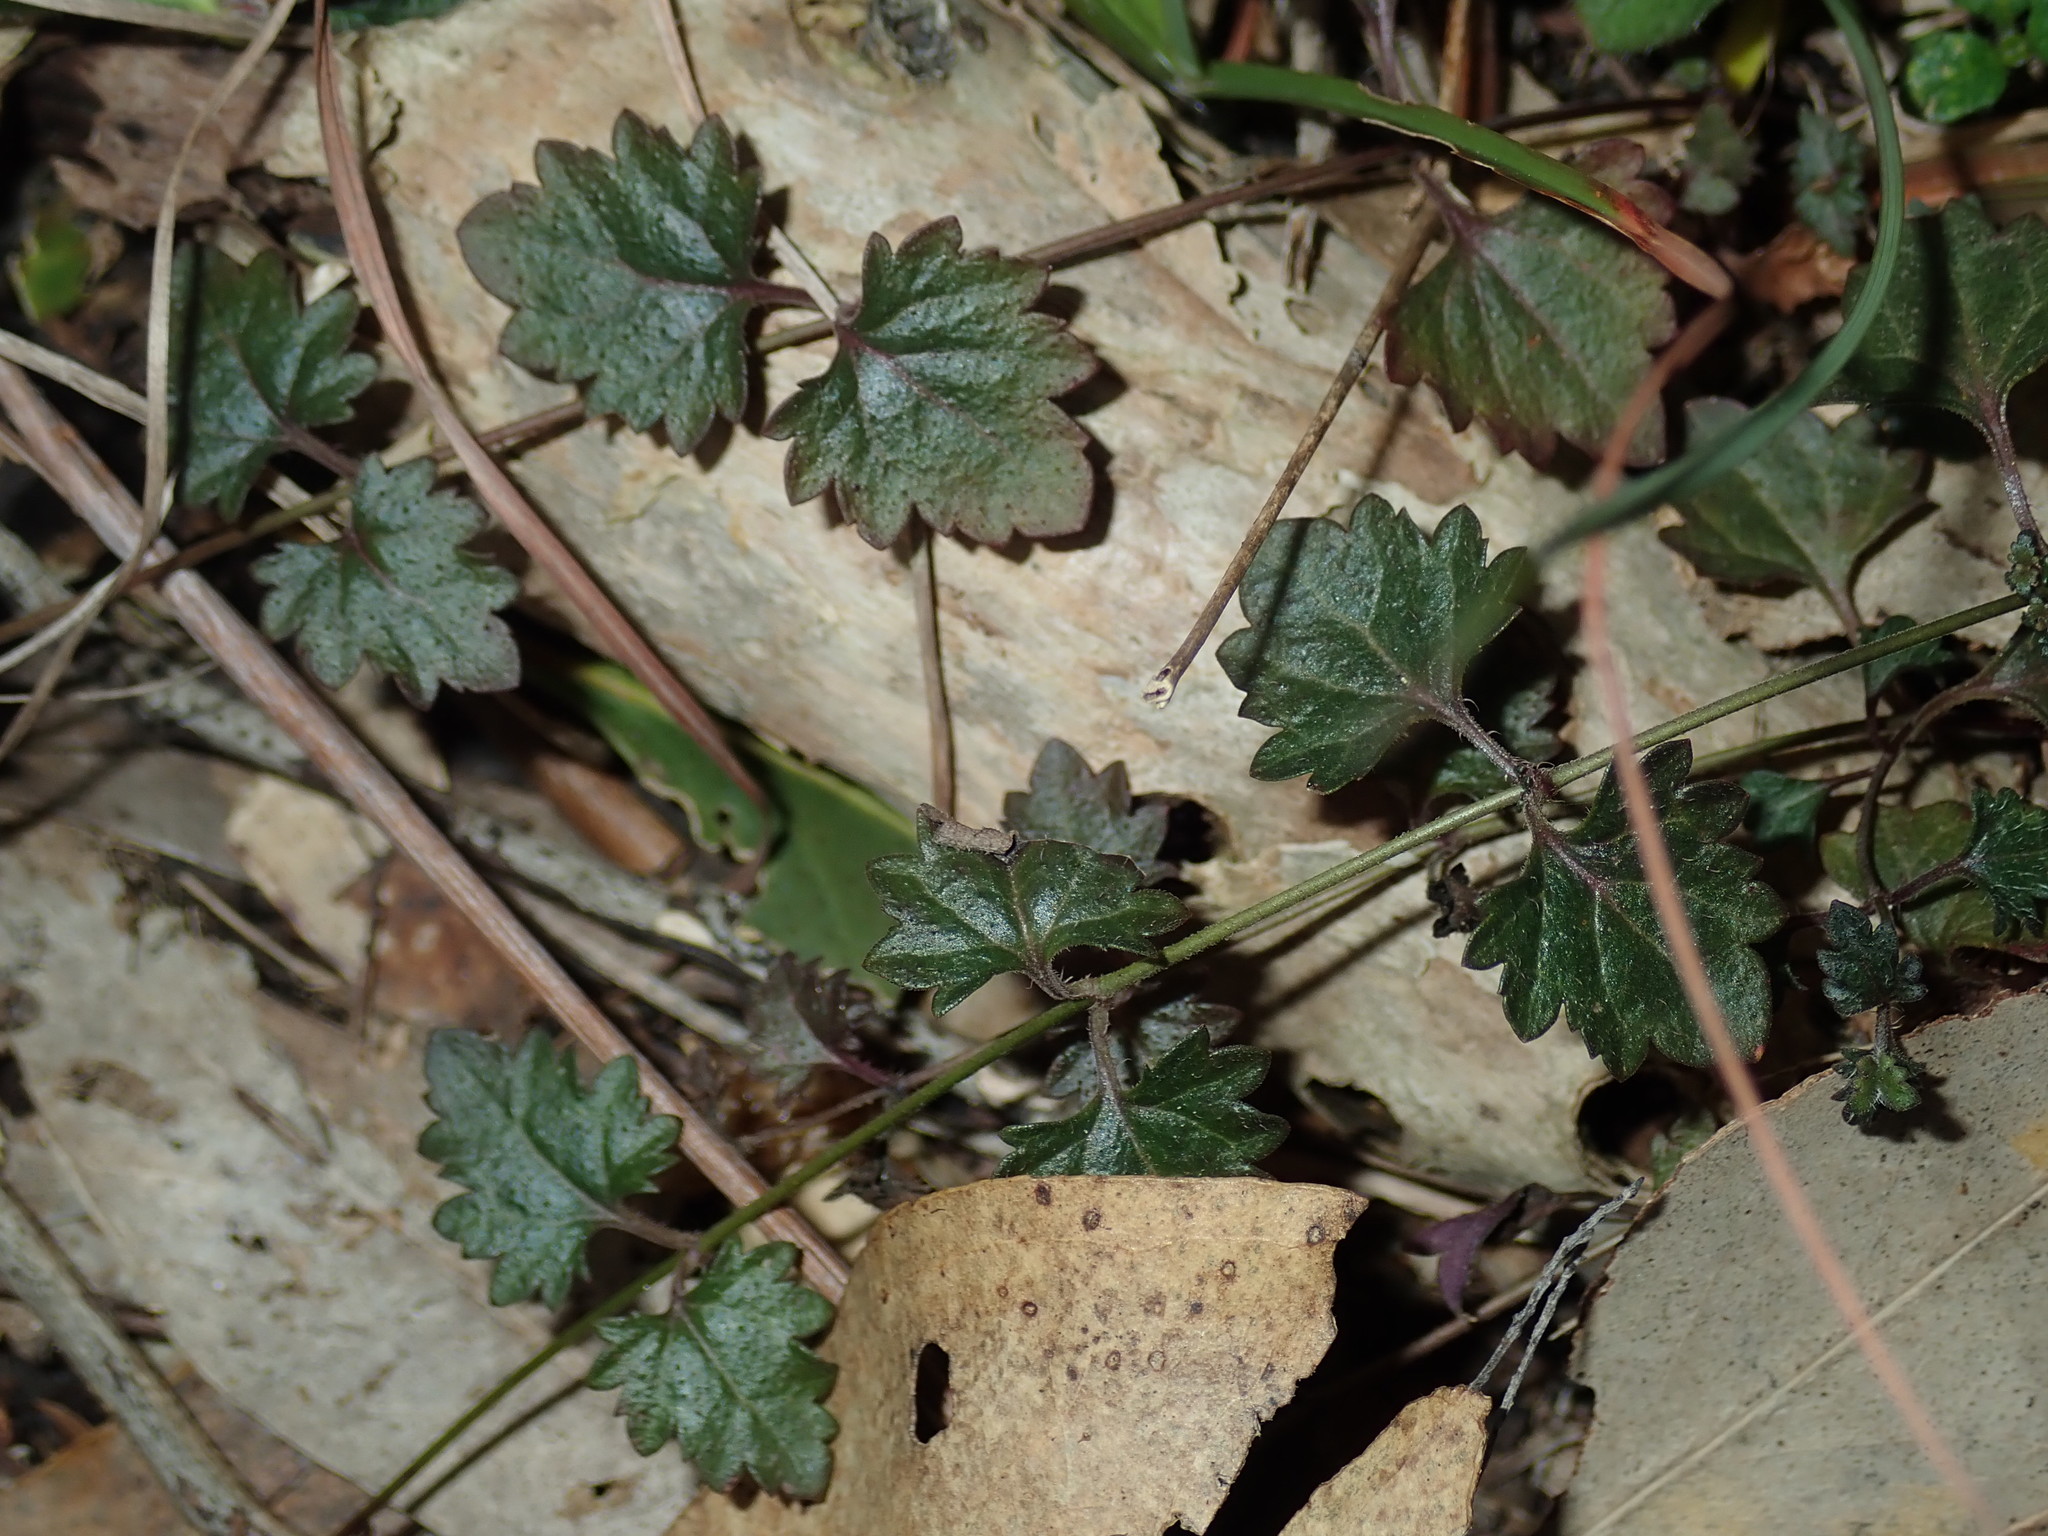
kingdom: Plantae
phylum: Tracheophyta
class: Magnoliopsida
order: Lamiales
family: Plantaginaceae
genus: Veronica
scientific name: Veronica plebeia
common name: Speedwell
